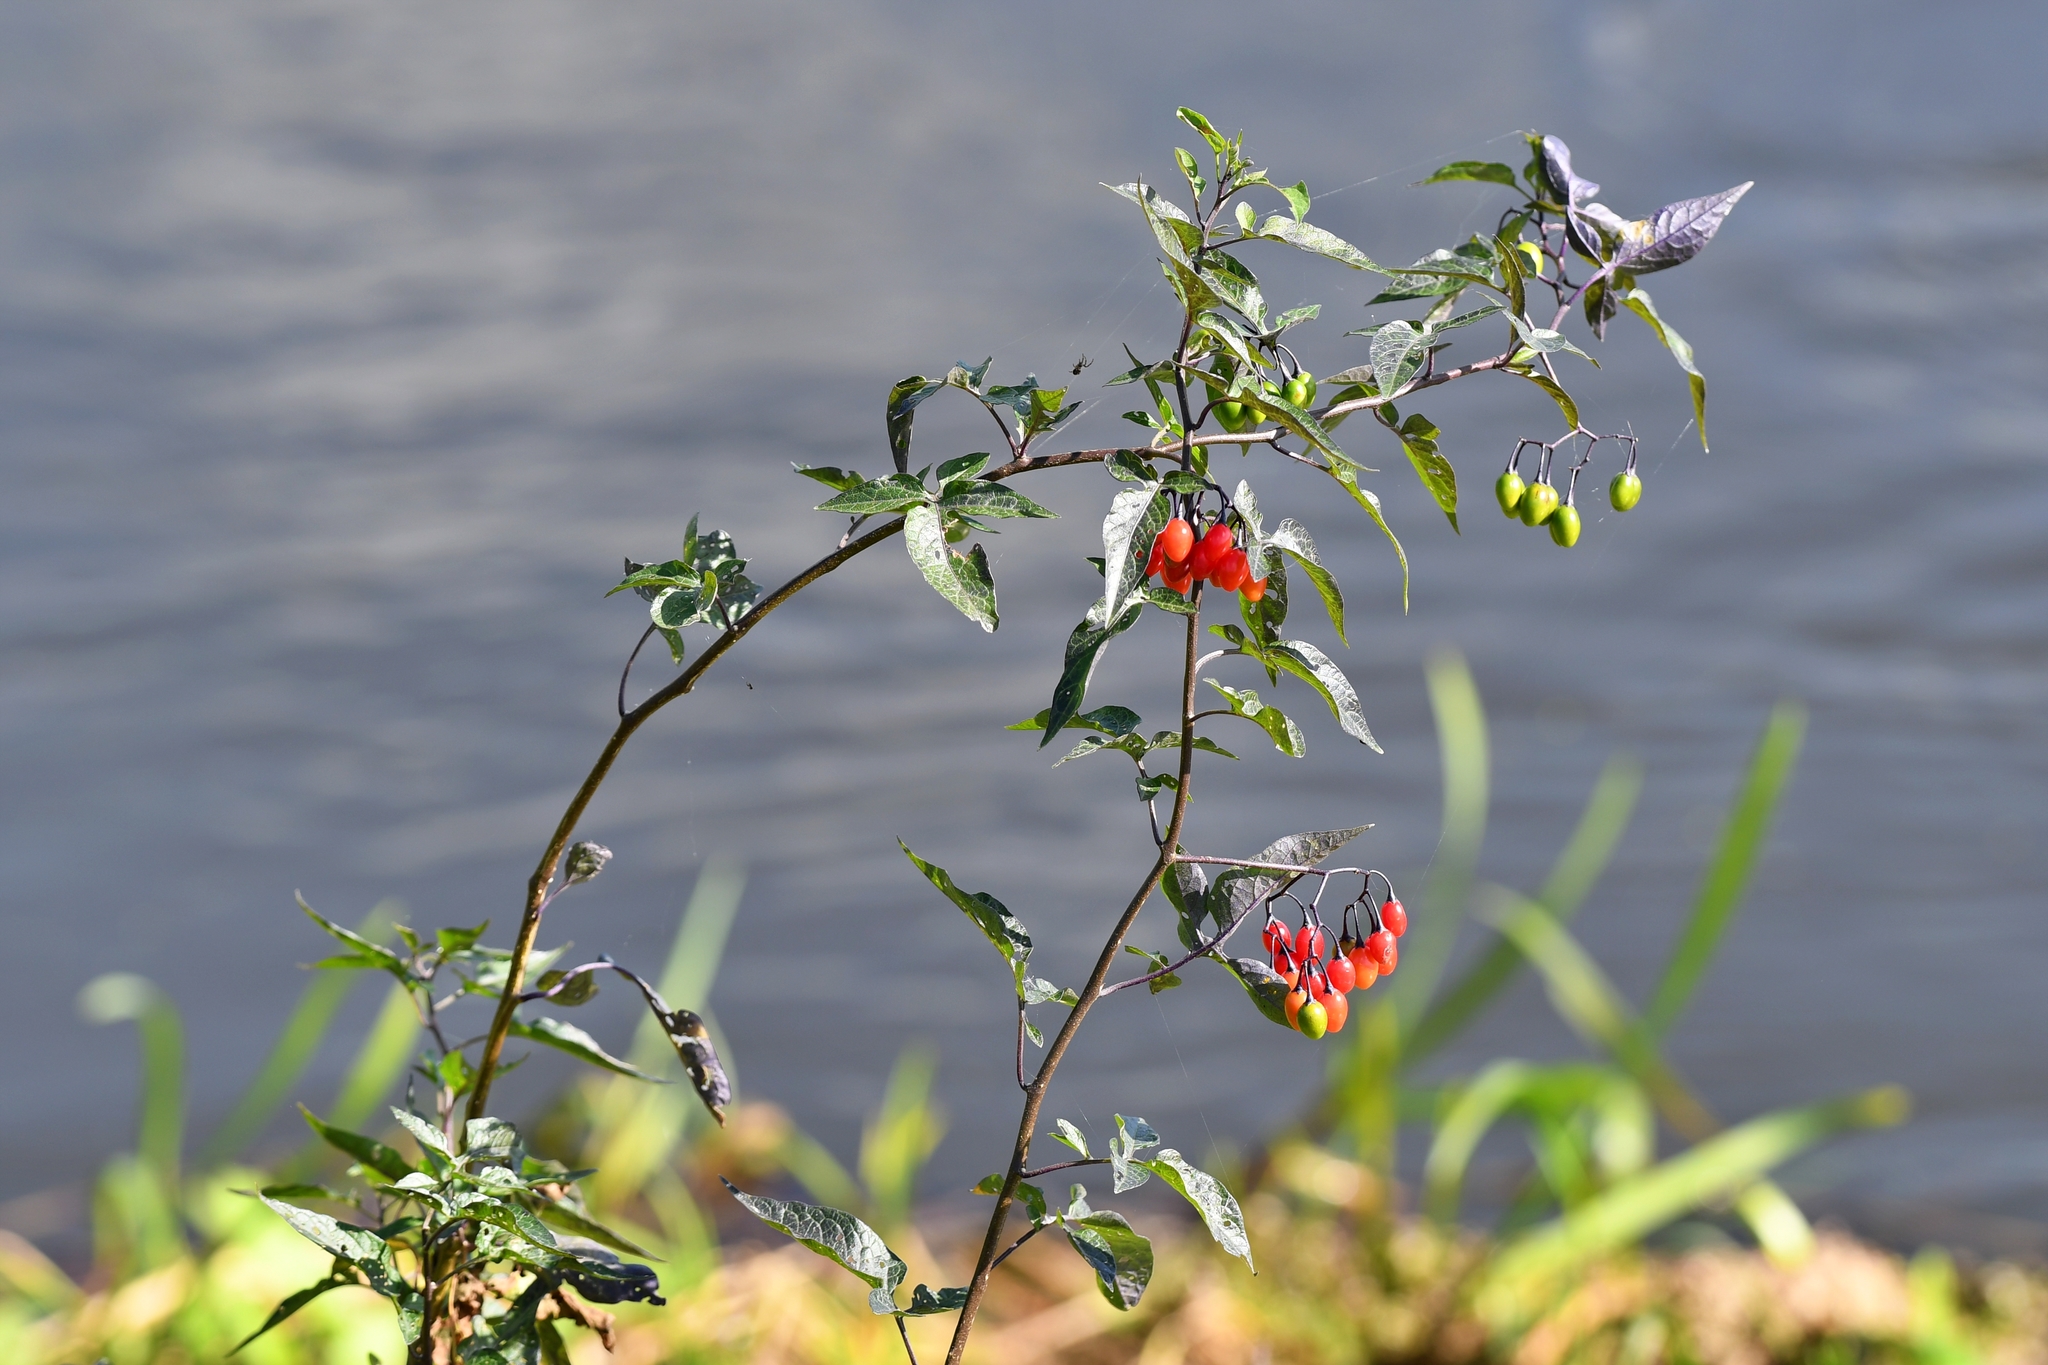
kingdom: Plantae
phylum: Tracheophyta
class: Magnoliopsida
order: Solanales
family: Solanaceae
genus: Solanum
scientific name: Solanum dulcamara
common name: Climbing nightshade
